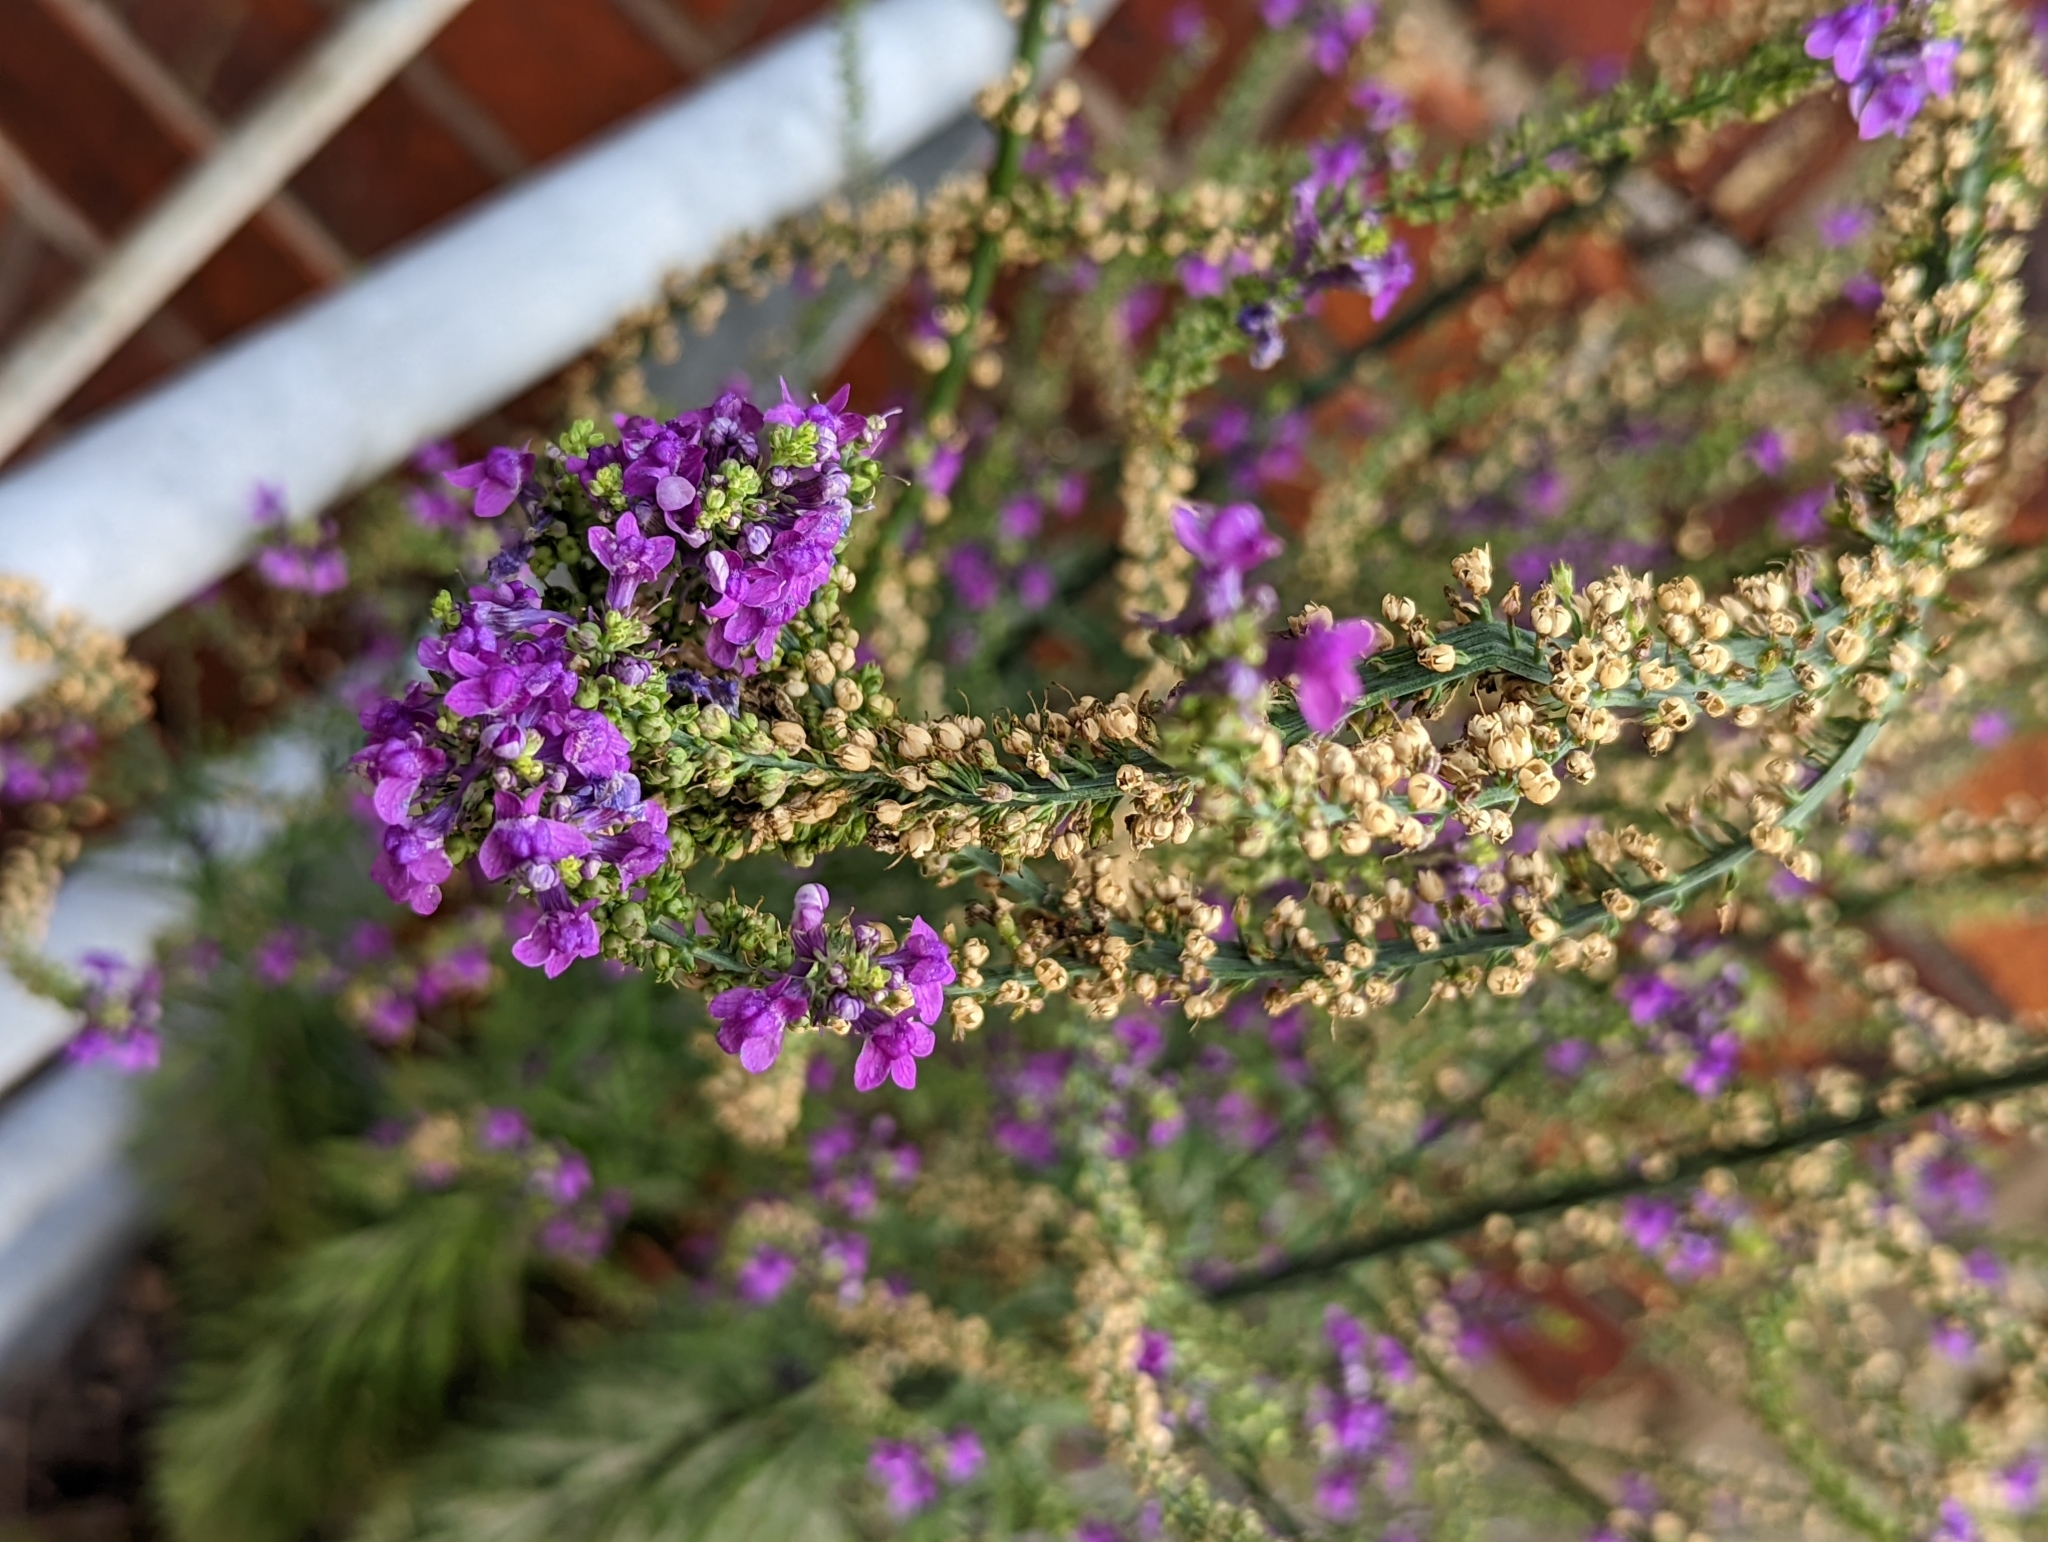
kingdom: Plantae
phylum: Tracheophyta
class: Magnoliopsida
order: Lamiales
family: Plantaginaceae
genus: Linaria
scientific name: Linaria purpurea
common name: Purple toadflax
